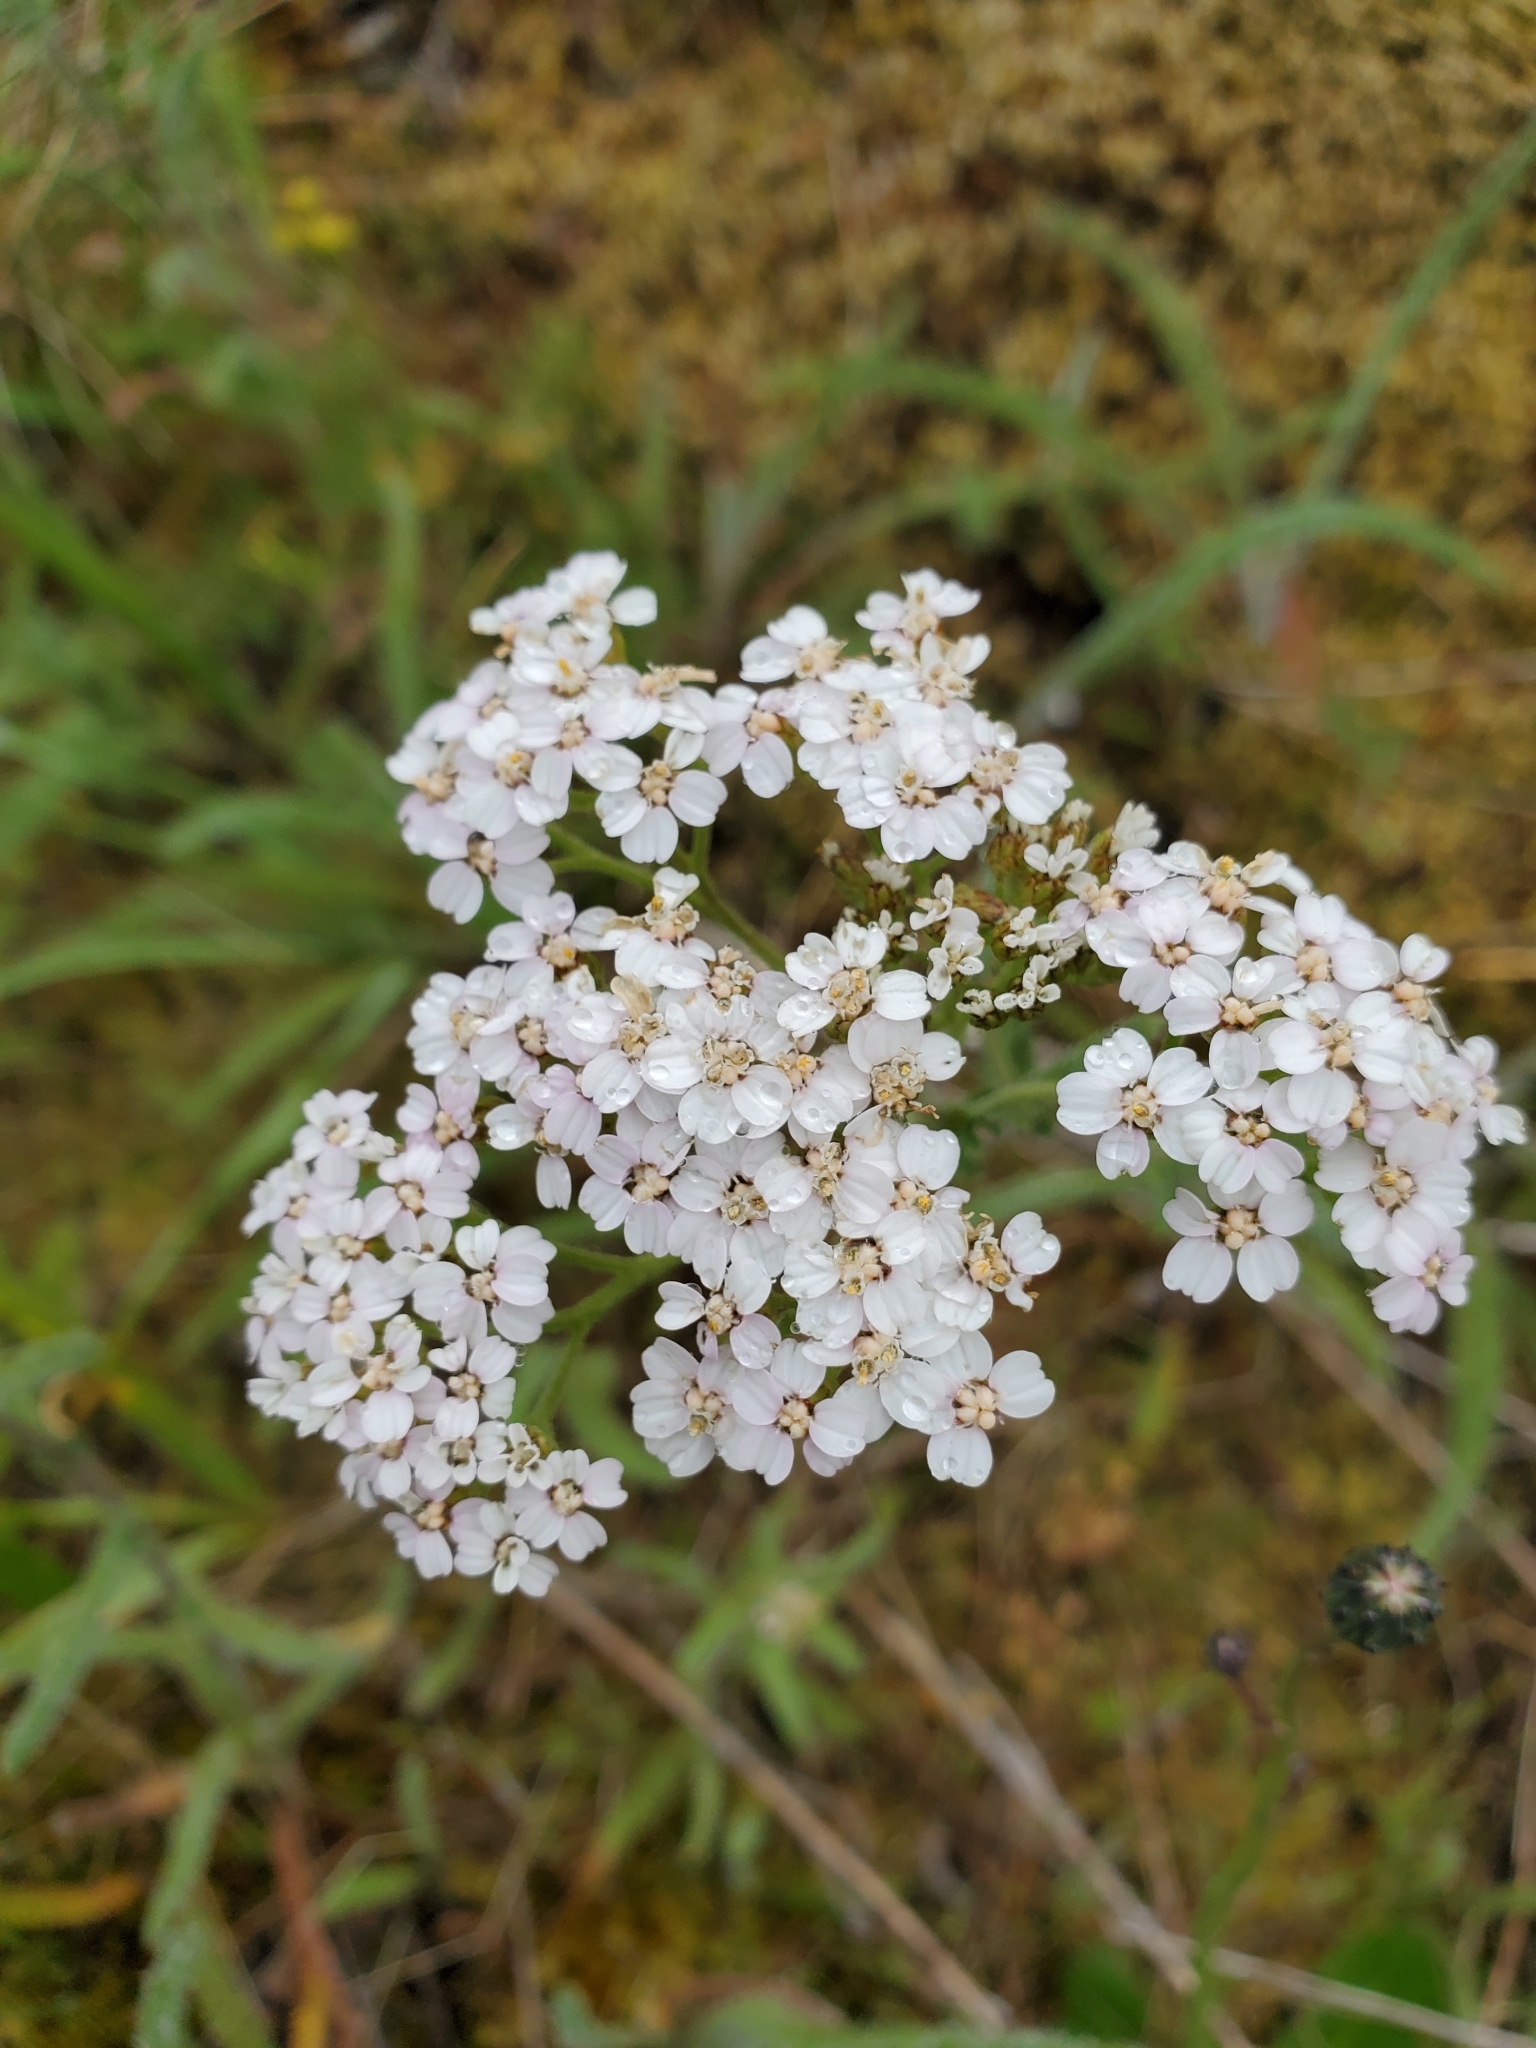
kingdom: Plantae
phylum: Tracheophyta
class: Magnoliopsida
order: Asterales
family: Asteraceae
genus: Achillea
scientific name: Achillea millefolium
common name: Yarrow
